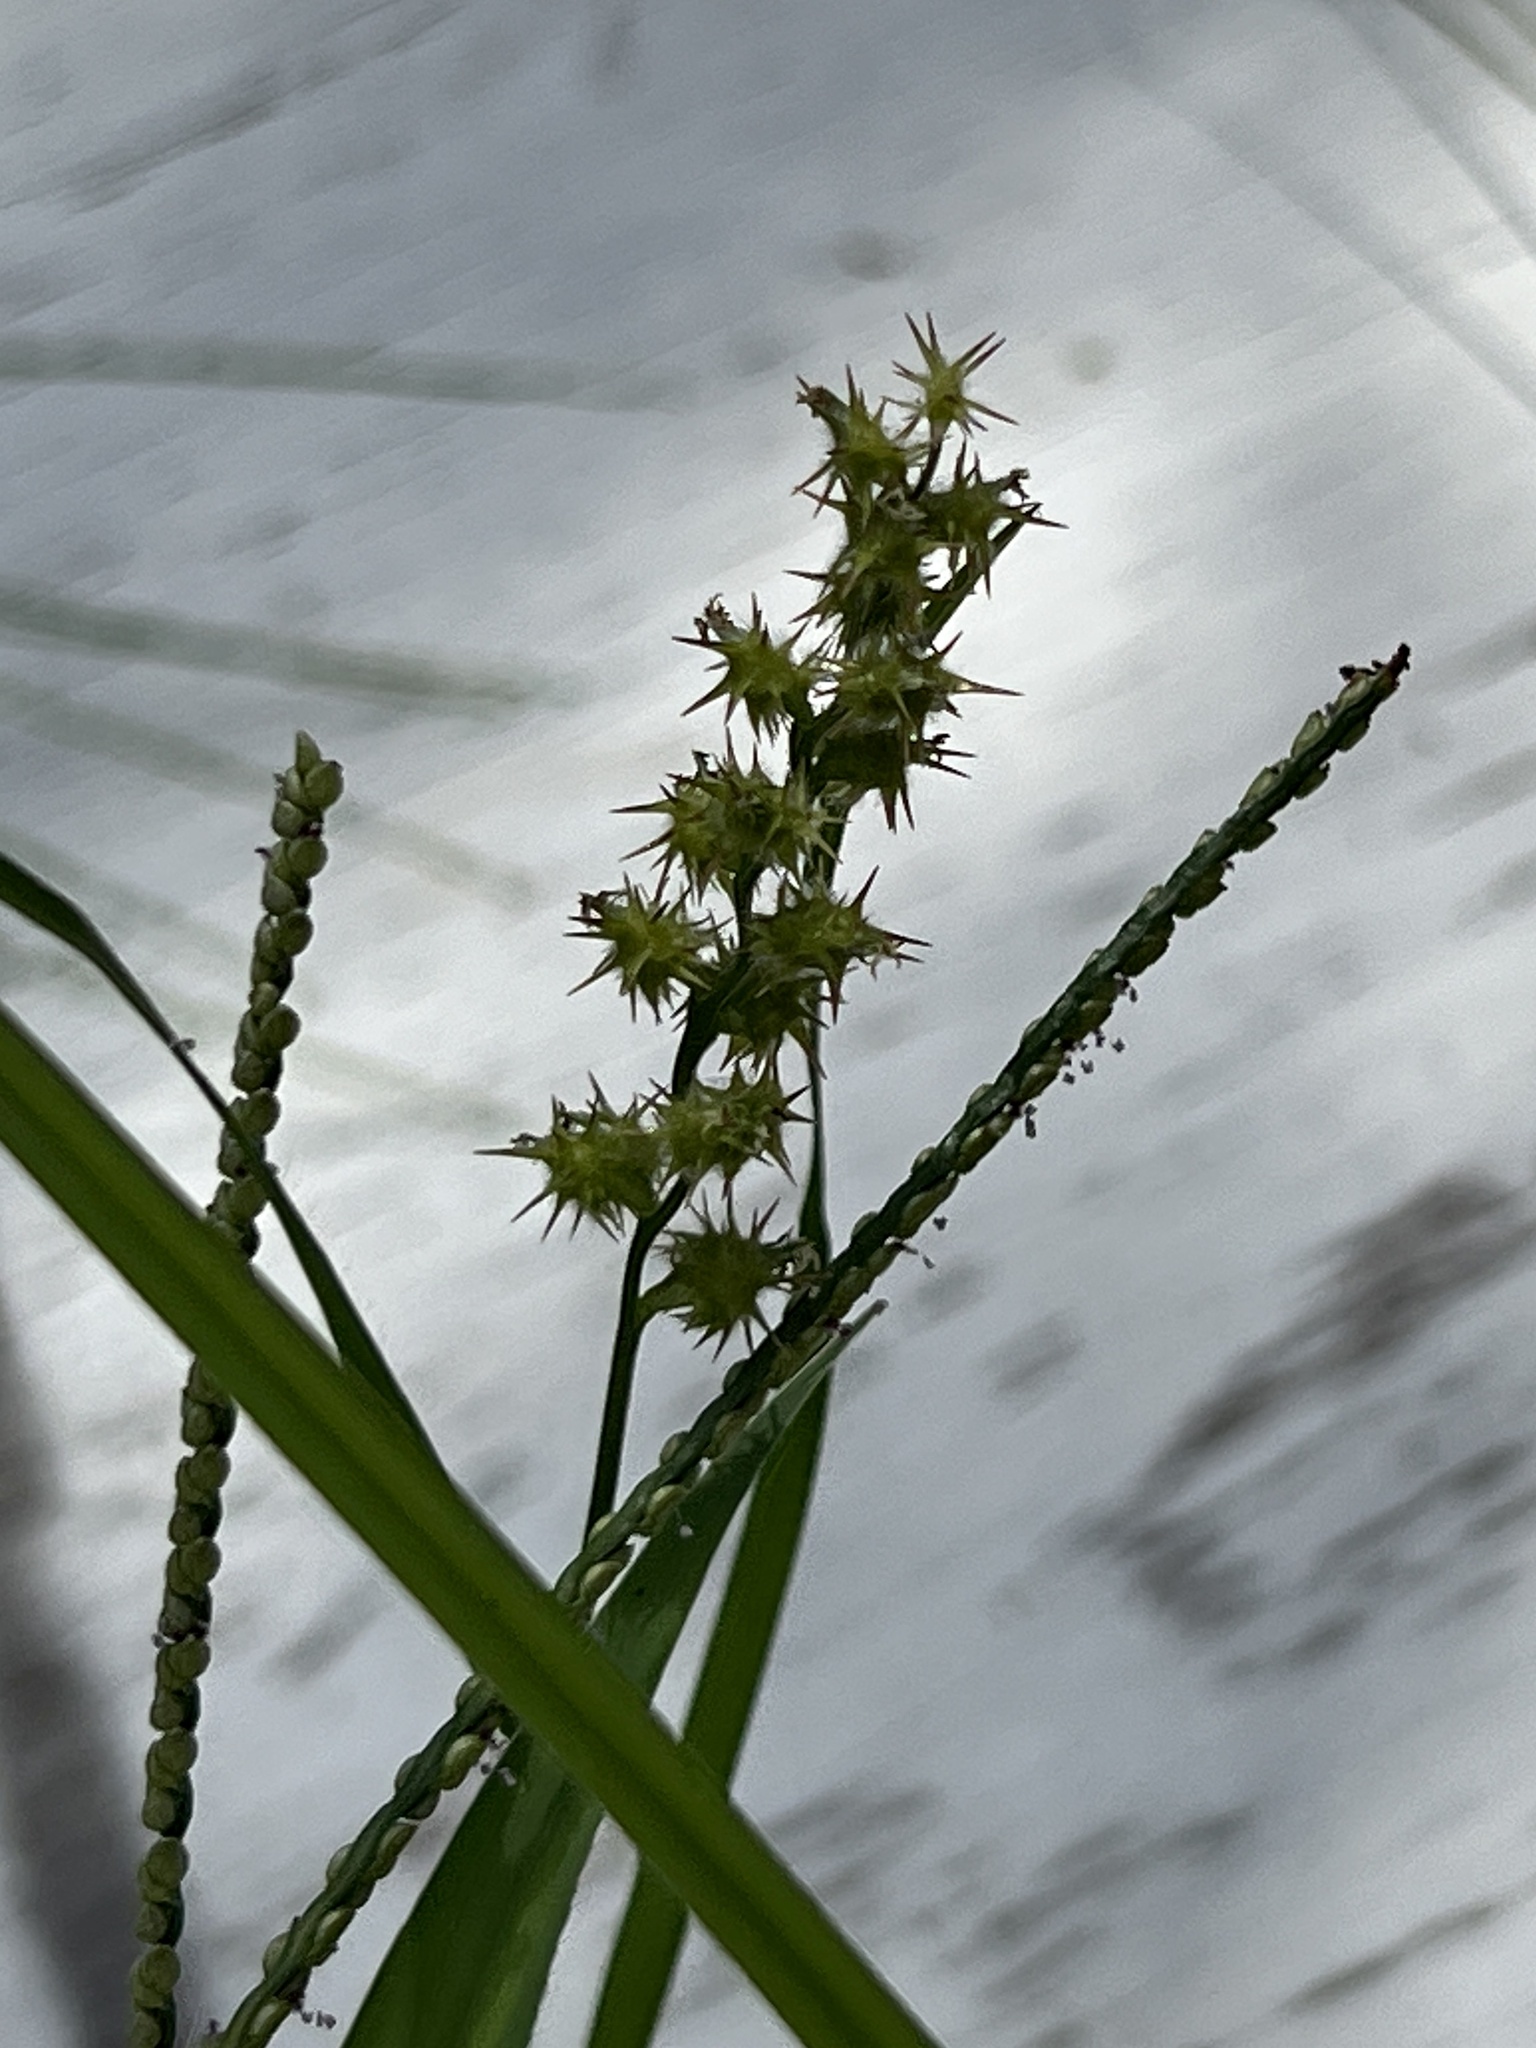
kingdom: Plantae
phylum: Tracheophyta
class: Liliopsida
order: Poales
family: Poaceae
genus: Cenchrus
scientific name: Cenchrus spinifex
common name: Coast sandbur
